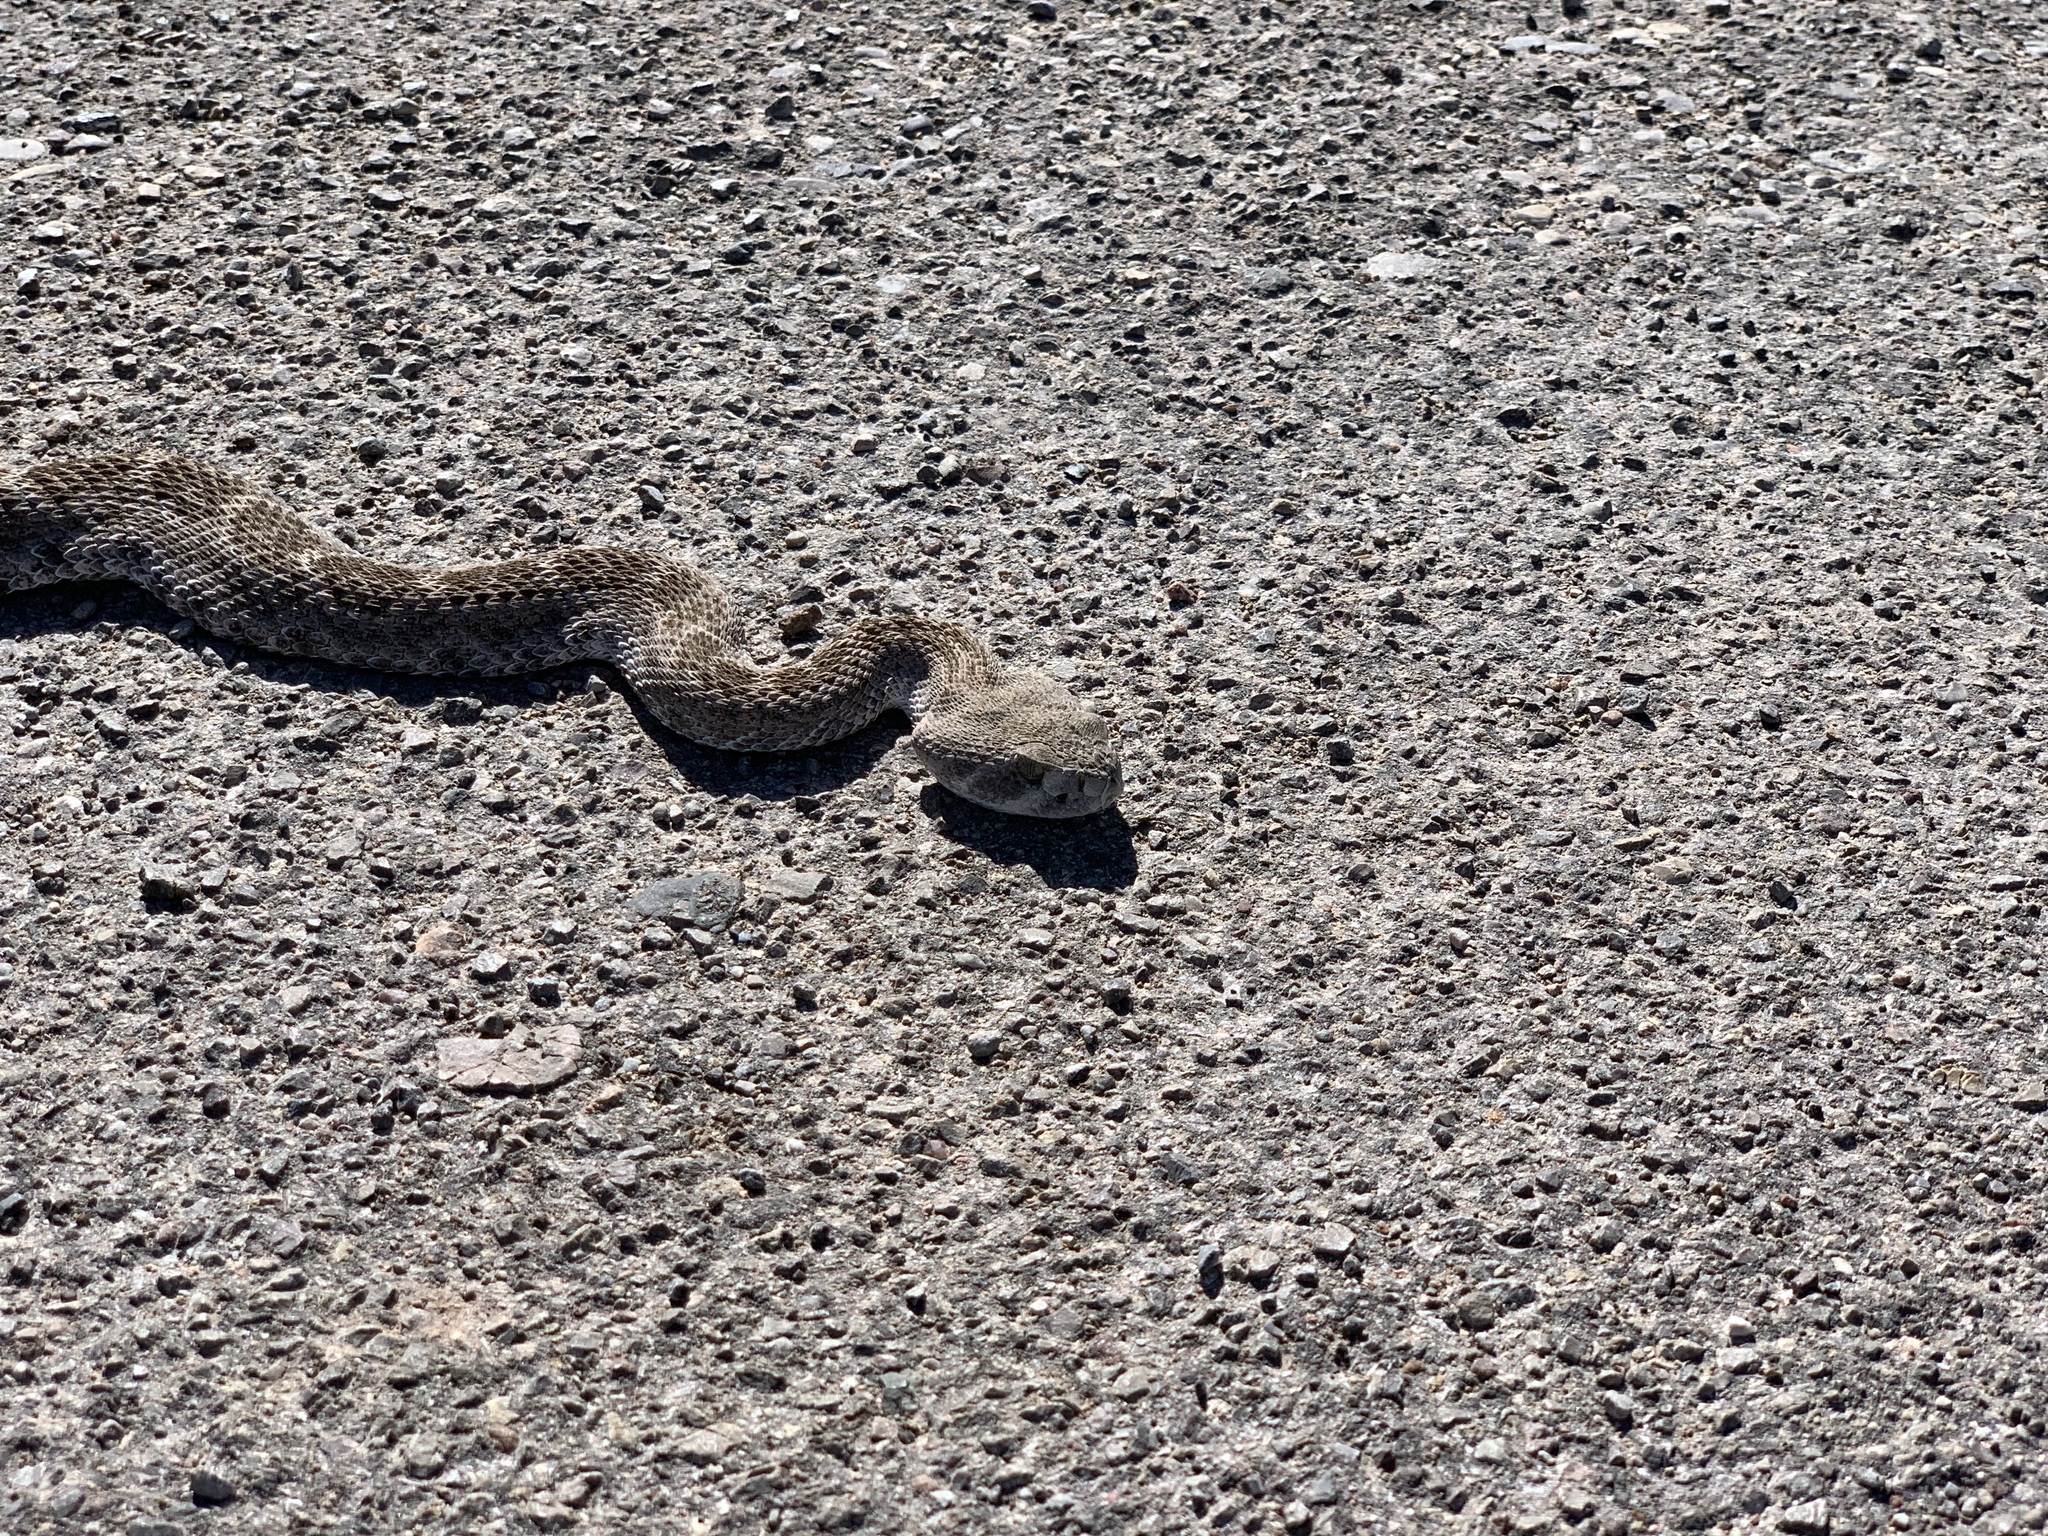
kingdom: Animalia
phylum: Chordata
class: Squamata
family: Viperidae
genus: Crotalus
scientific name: Crotalus atrox
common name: Western diamond-backed rattlesnake
